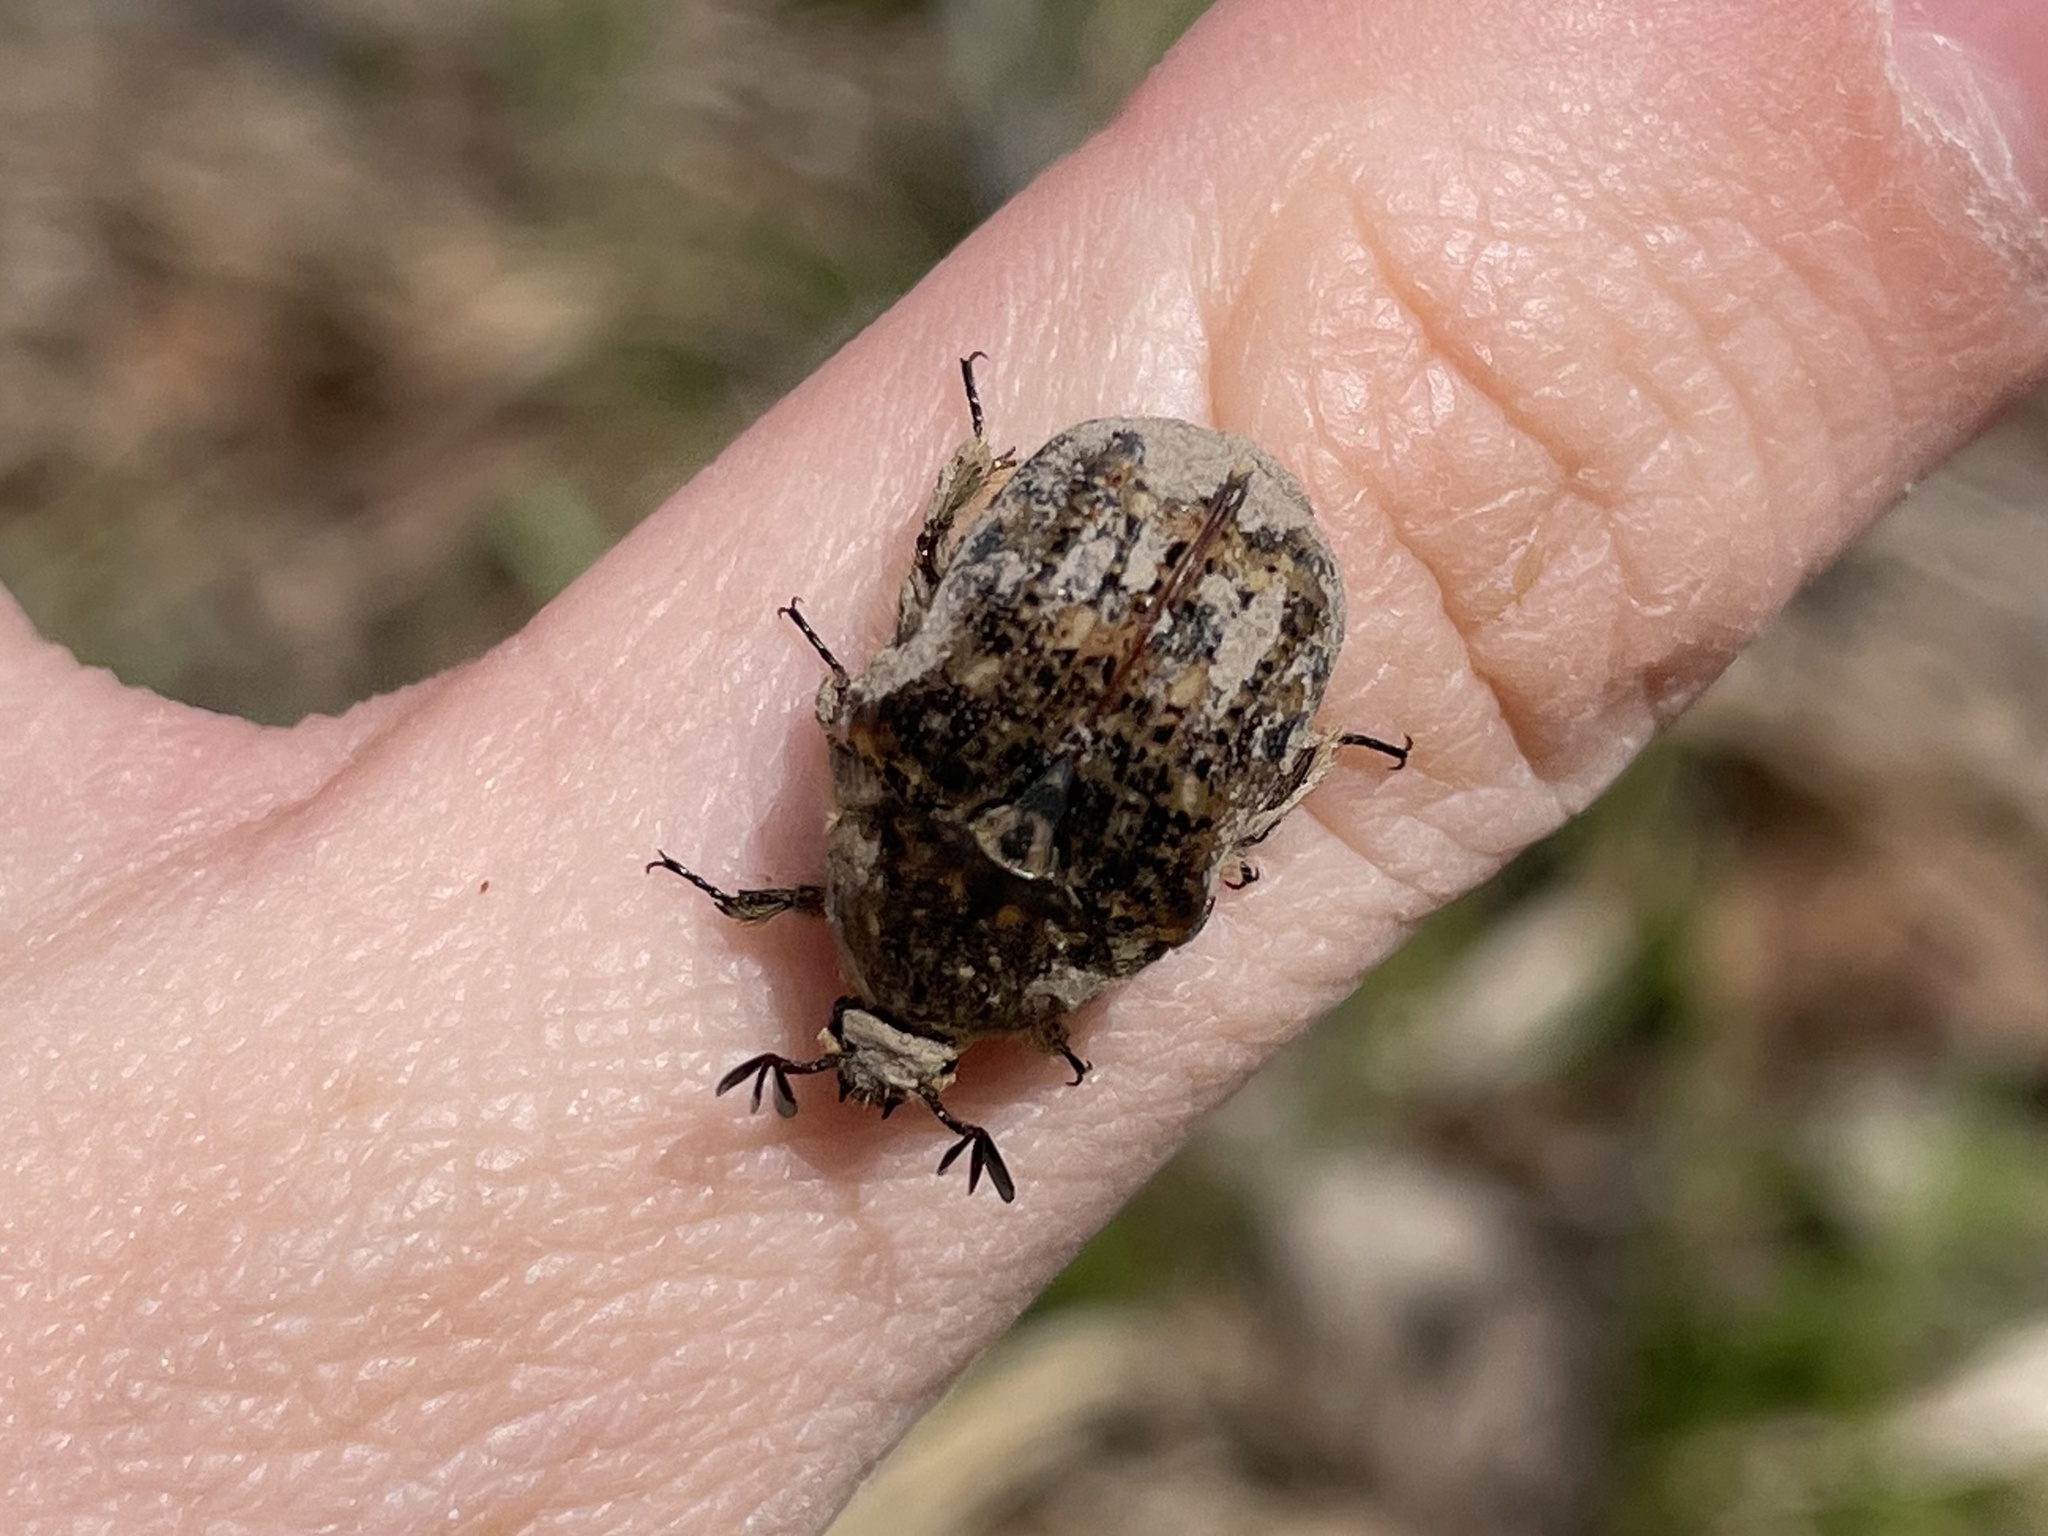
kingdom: Animalia
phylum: Arthropoda
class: Insecta
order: Coleoptera
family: Scarabaeidae
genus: Euphoria
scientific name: Euphoria inda
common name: Bumble flower beetle
